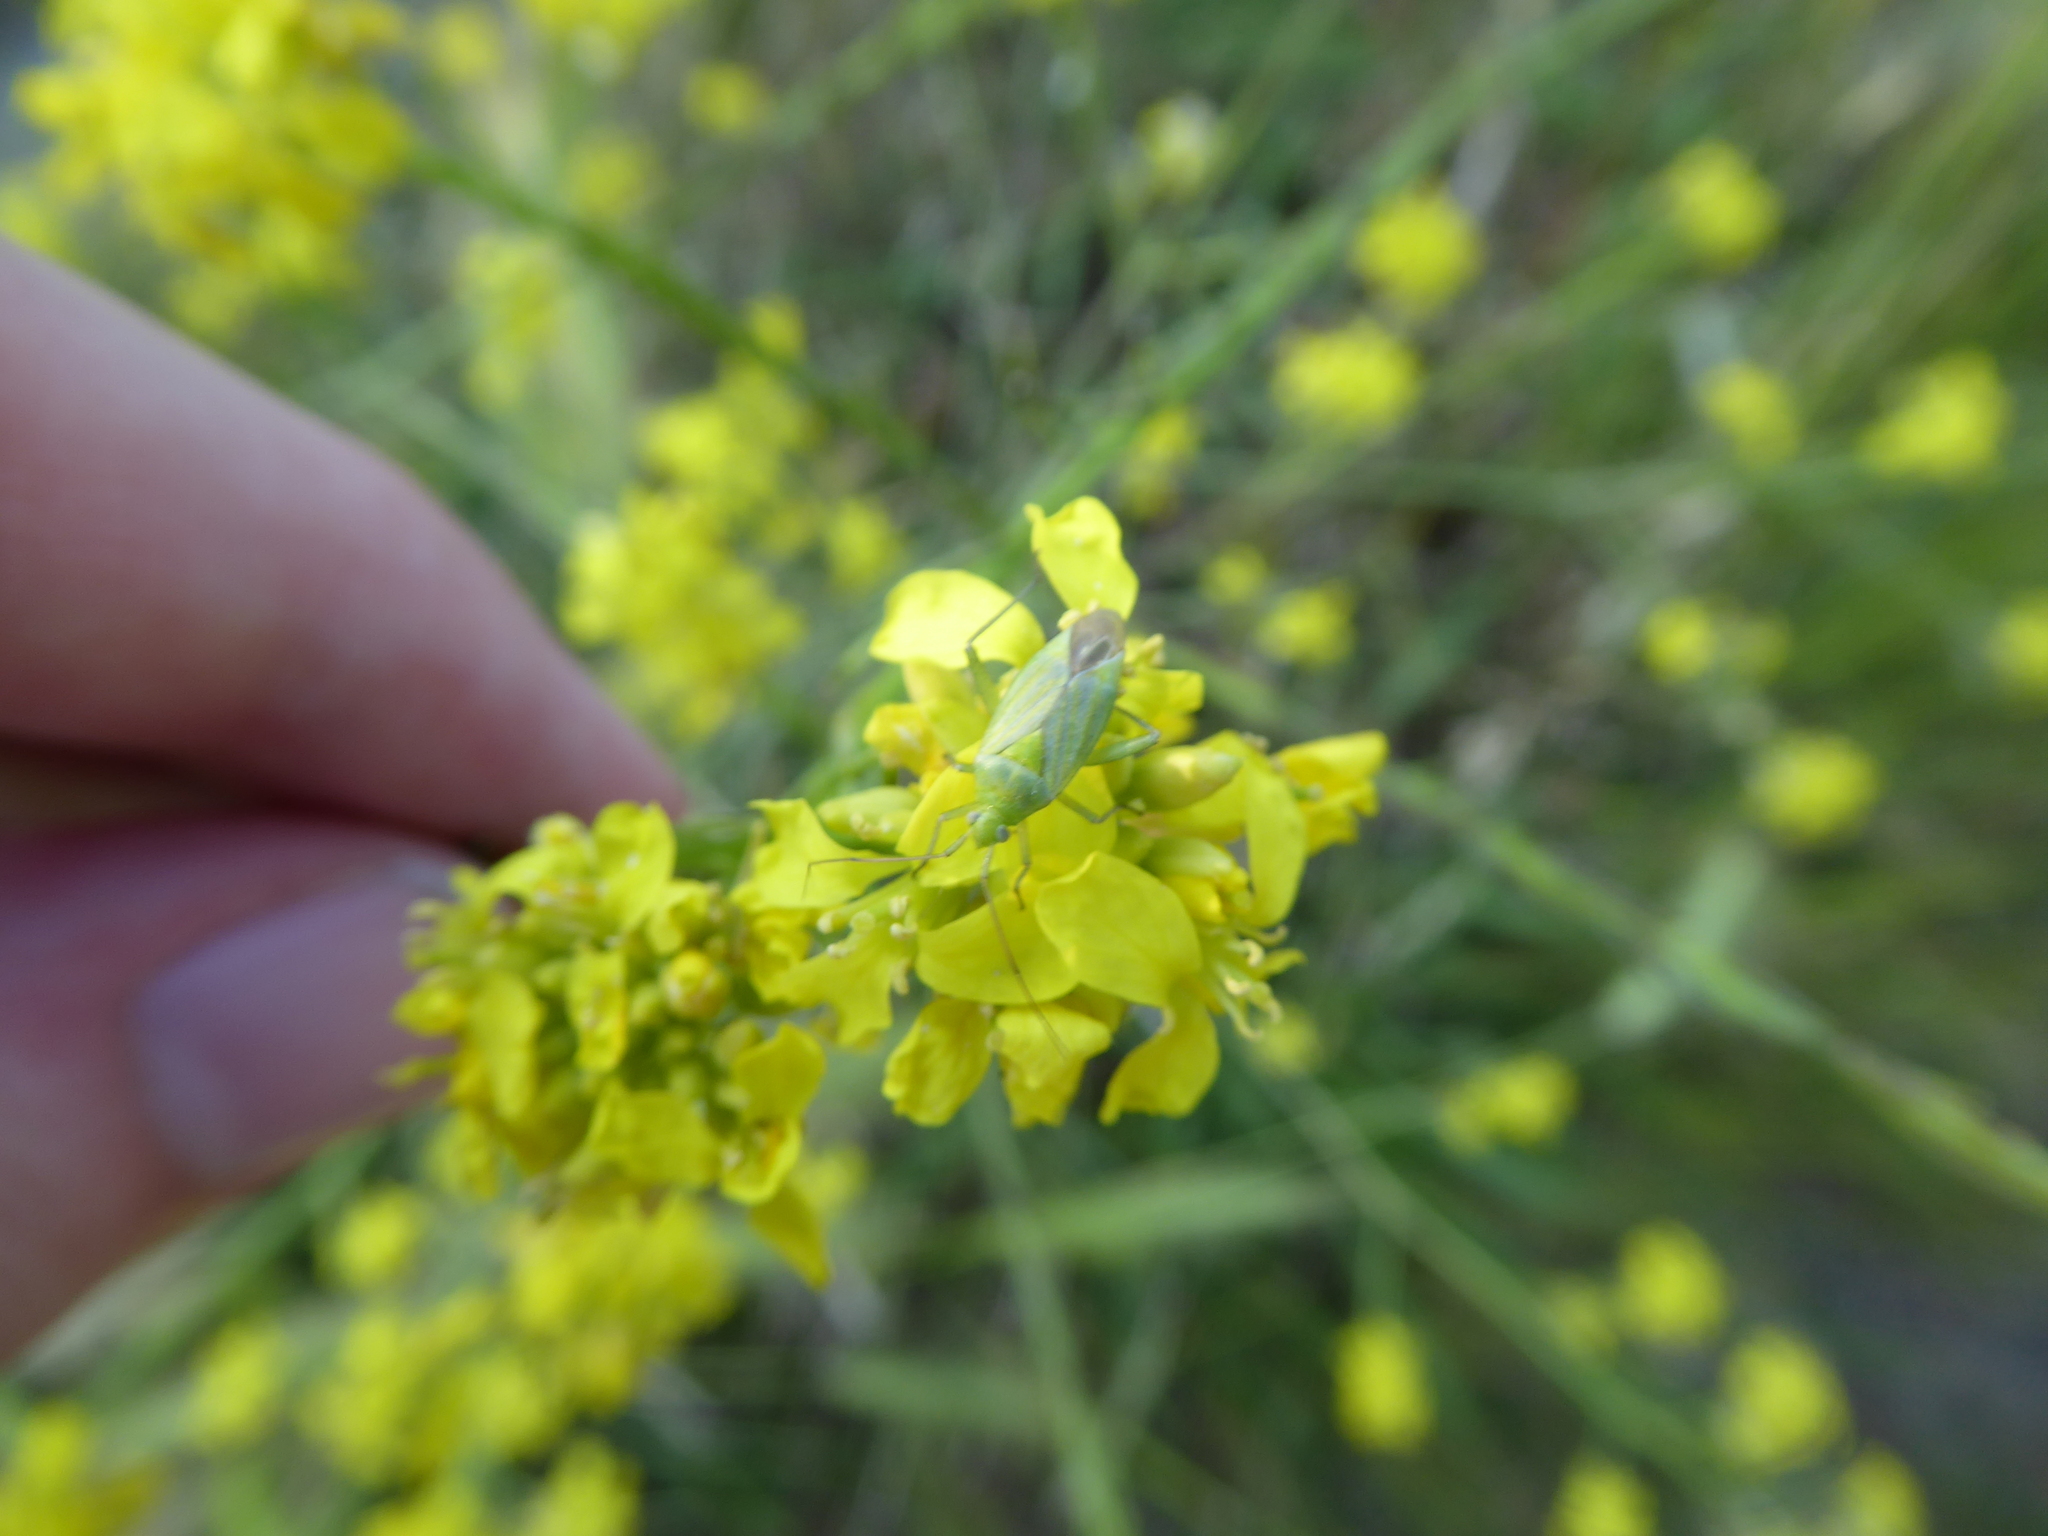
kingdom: Animalia
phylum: Arthropoda
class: Insecta
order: Hemiptera
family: Miridae
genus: Closterotomus
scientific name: Closterotomus norvegicus
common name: Plant bug
